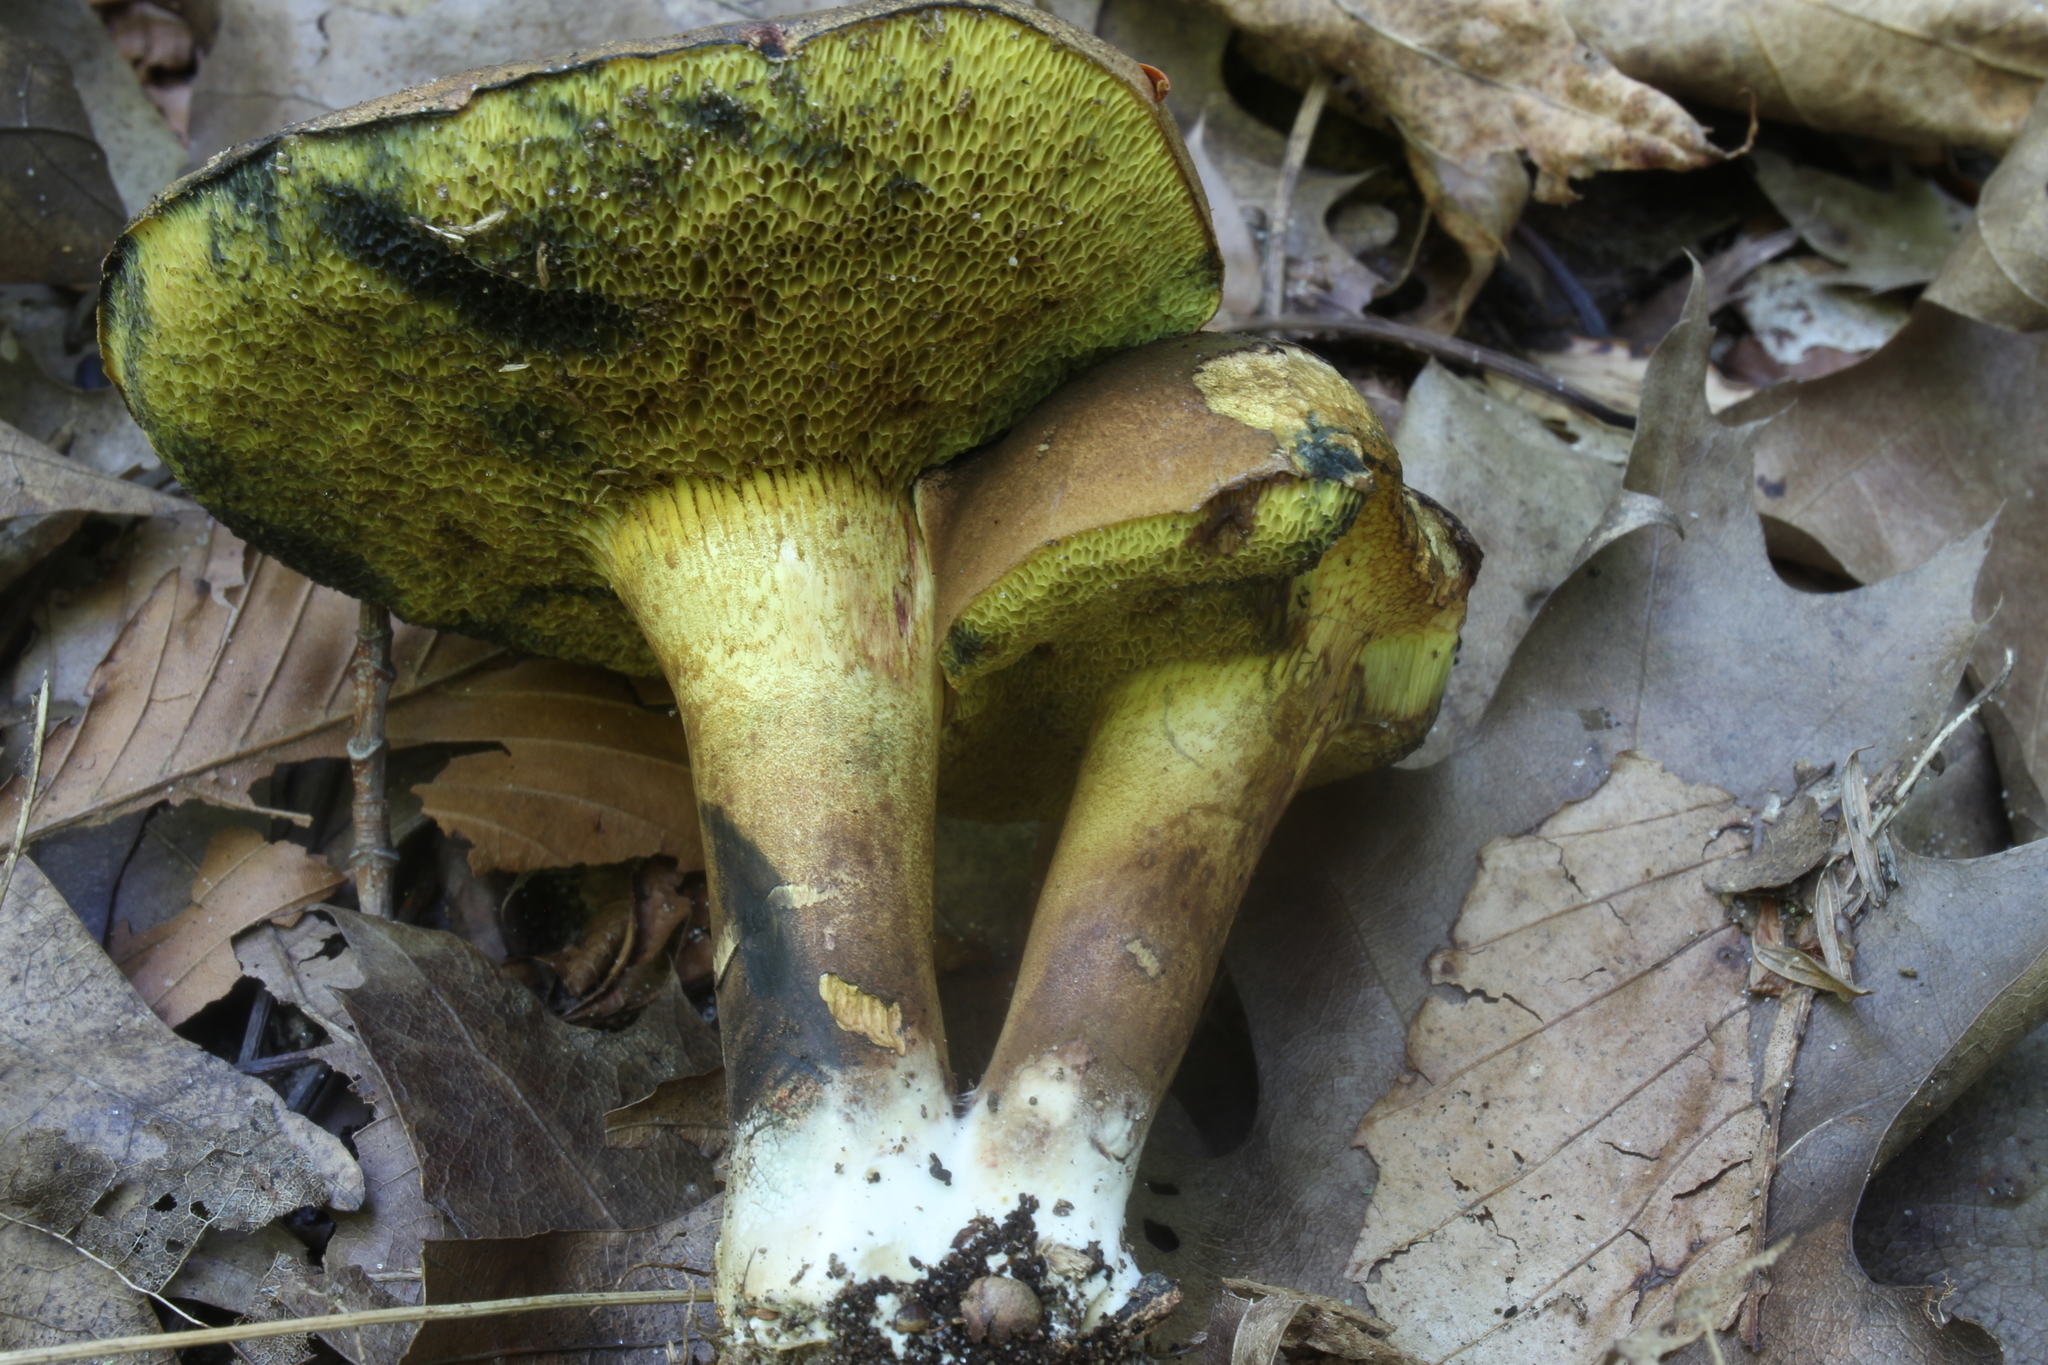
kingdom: Fungi
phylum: Basidiomycota
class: Agaricomycetes
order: Boletales
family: Boletaceae
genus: Cyanoboletus
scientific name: Cyanoboletus pulverulentus
